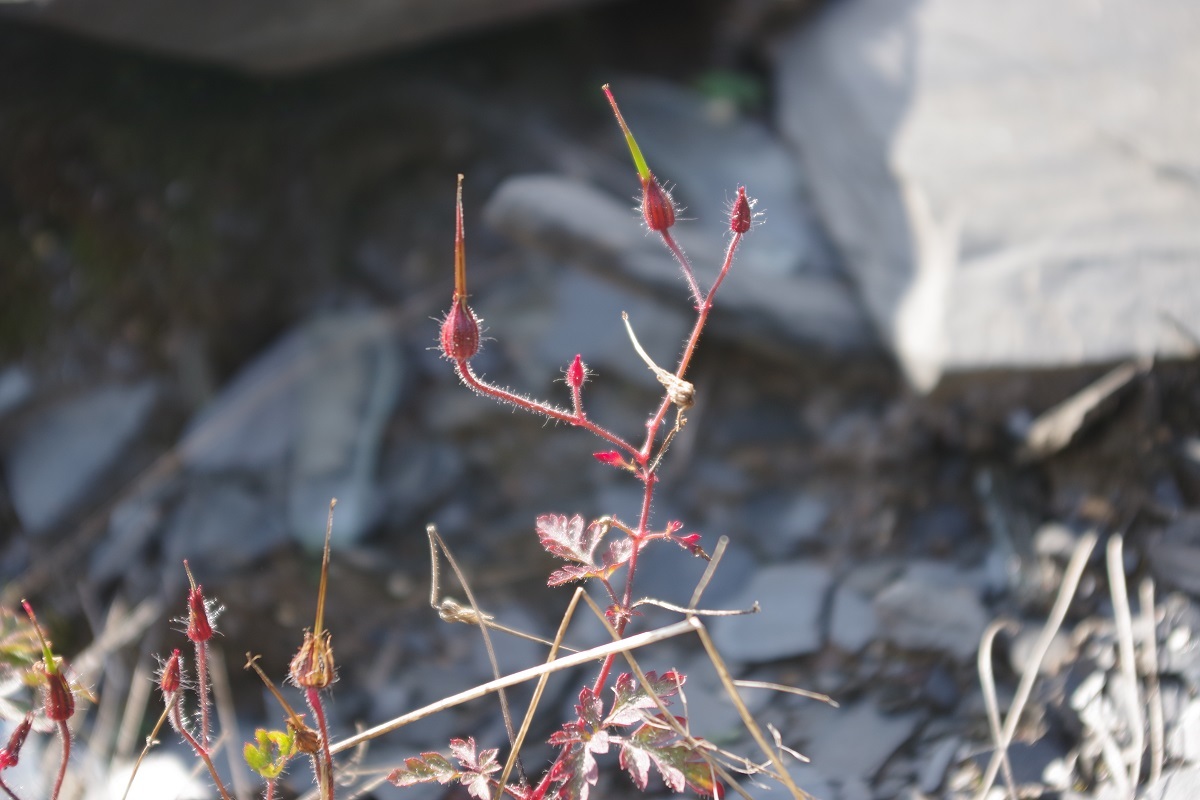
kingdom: Plantae
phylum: Tracheophyta
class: Magnoliopsida
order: Geraniales
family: Geraniaceae
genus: Geranium
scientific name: Geranium robertianum
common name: Herb-robert
